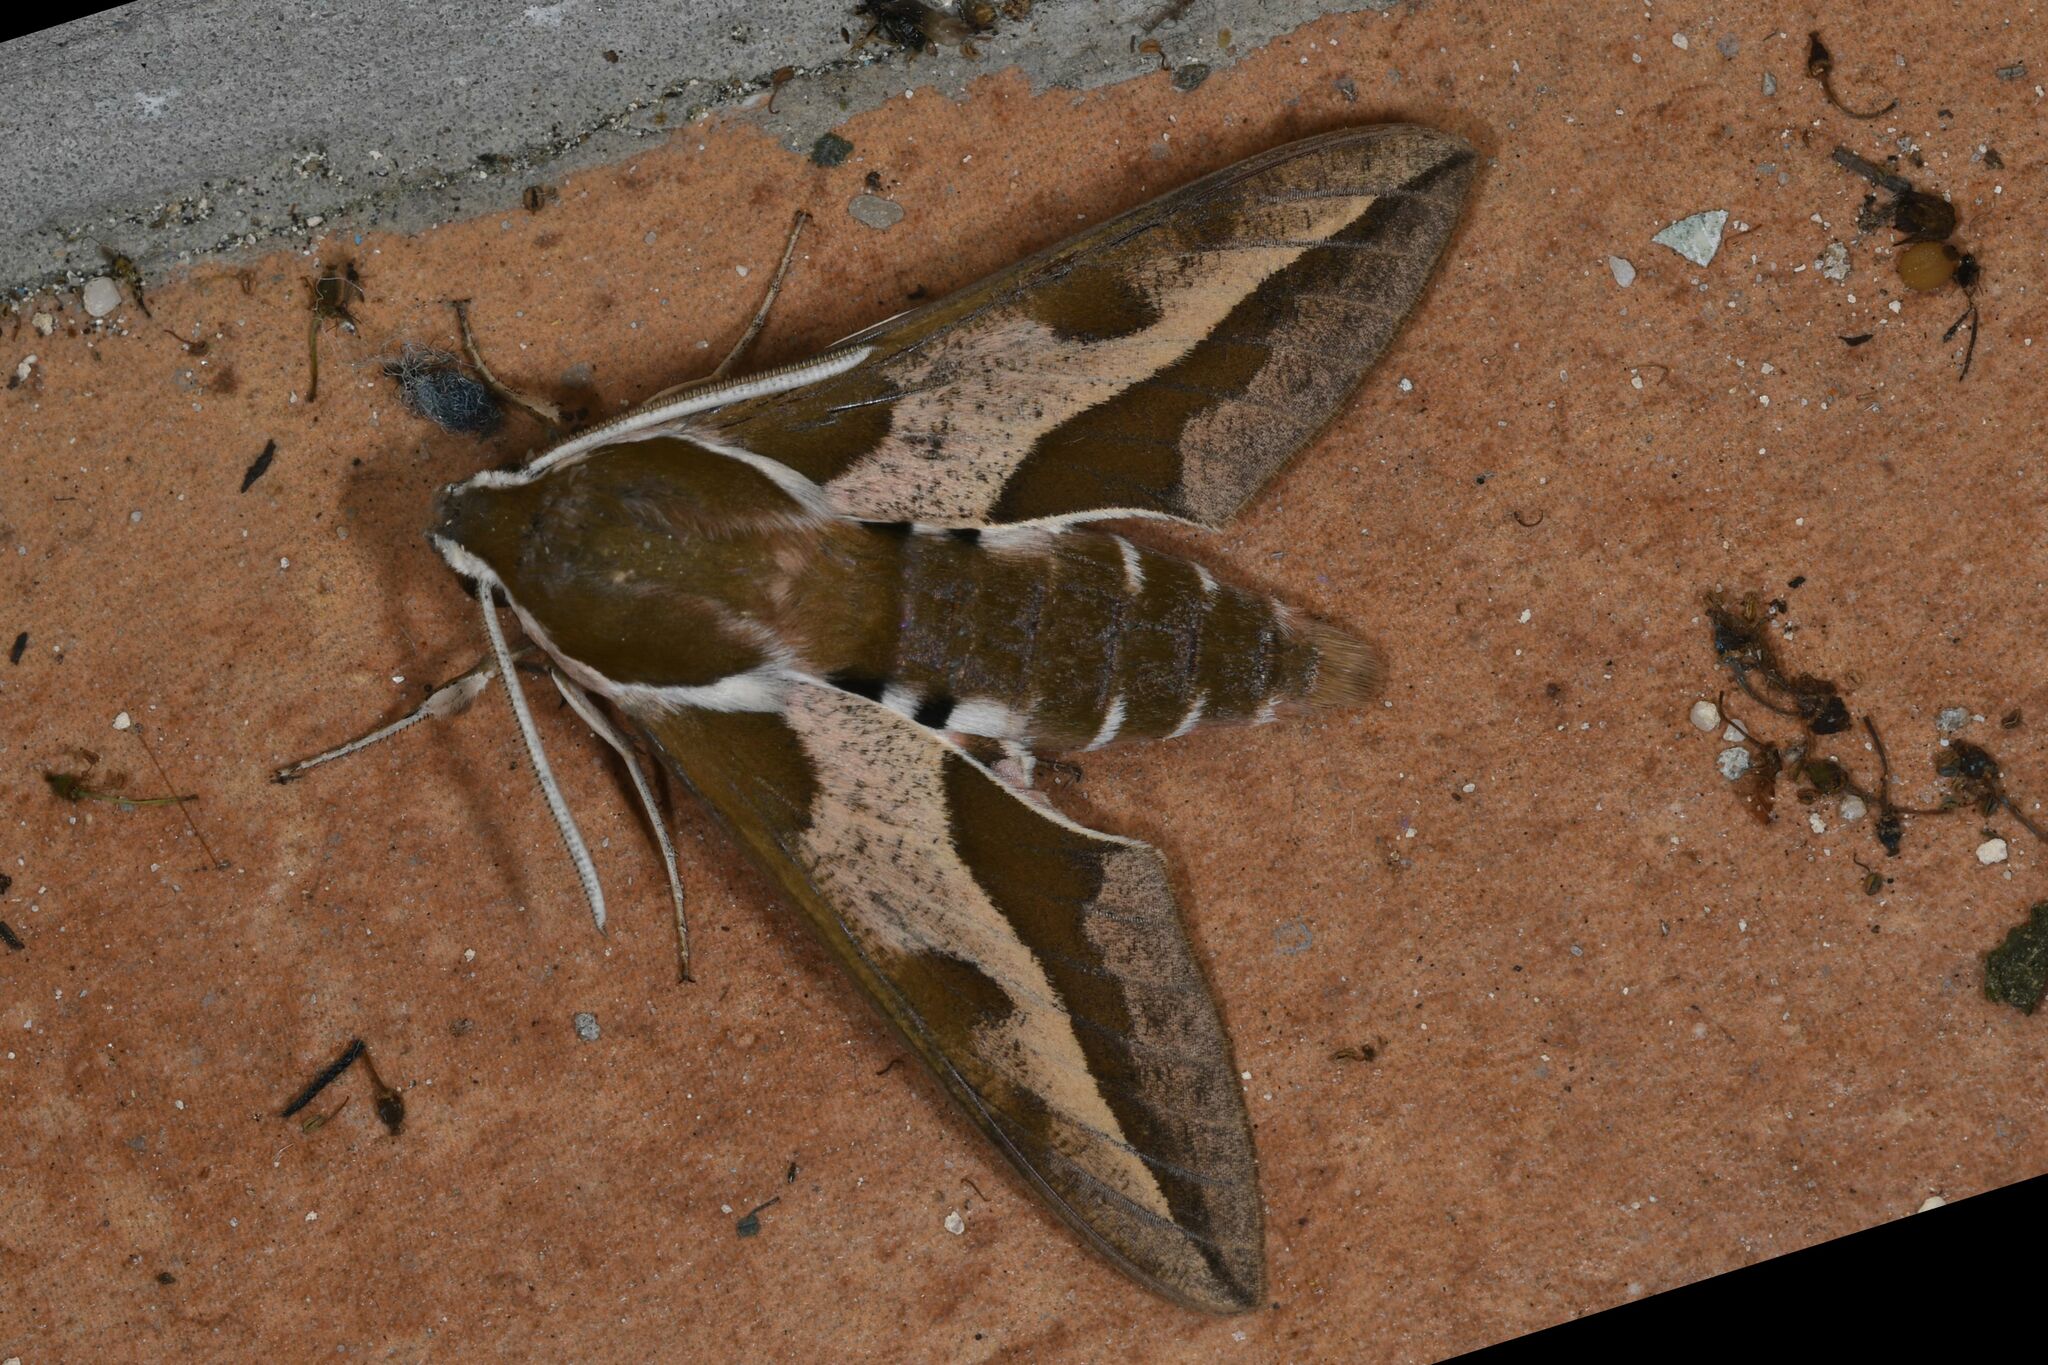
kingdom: Animalia
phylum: Arthropoda
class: Insecta
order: Lepidoptera
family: Sphingidae
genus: Hyles
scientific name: Hyles euphorbiae
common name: Spurge hawk-moth
